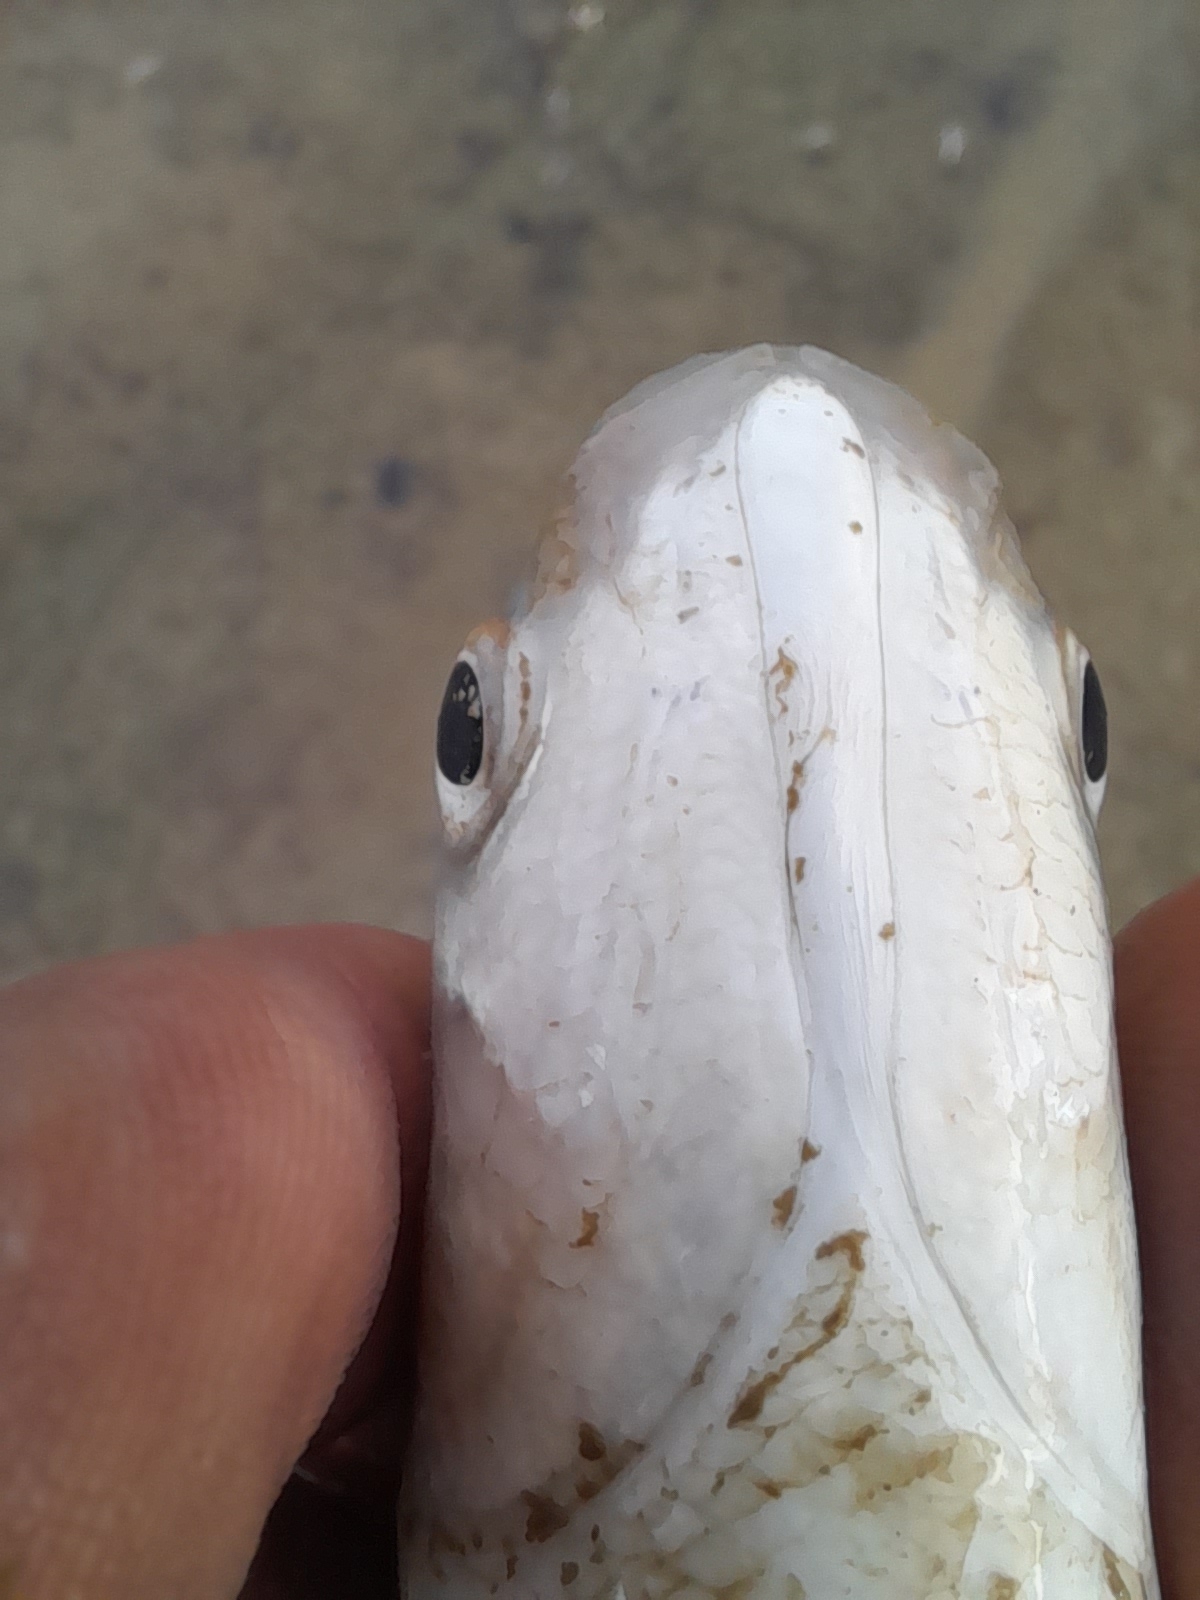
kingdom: Animalia
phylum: Chordata
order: Mugiliformes
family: Mugilidae
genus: Chelon
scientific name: Chelon ramada
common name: Thinlip grey mullet
